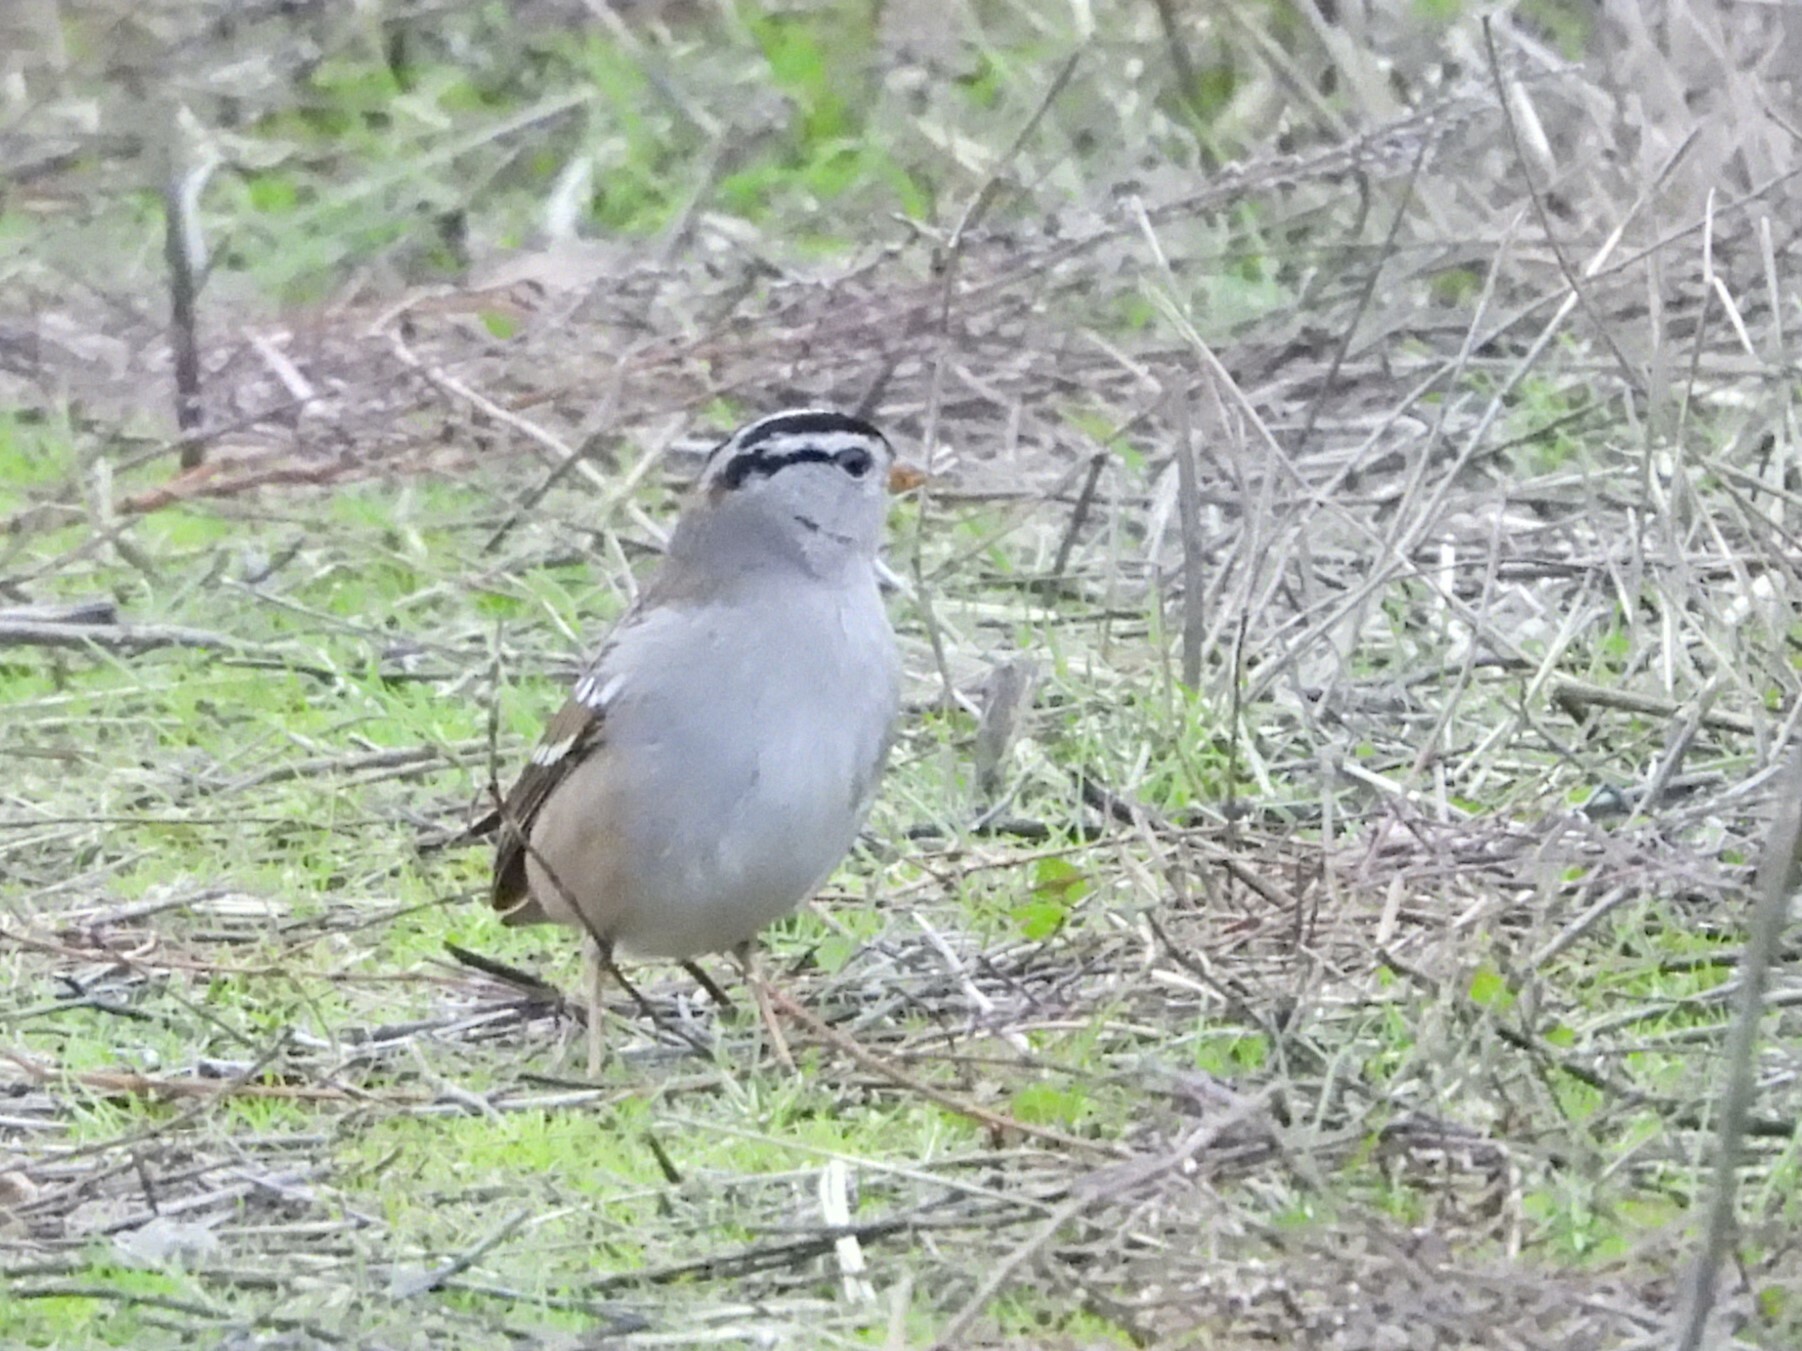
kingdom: Animalia
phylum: Chordata
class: Aves
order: Passeriformes
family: Passerellidae
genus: Zonotrichia
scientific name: Zonotrichia leucophrys
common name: White-crowned sparrow
